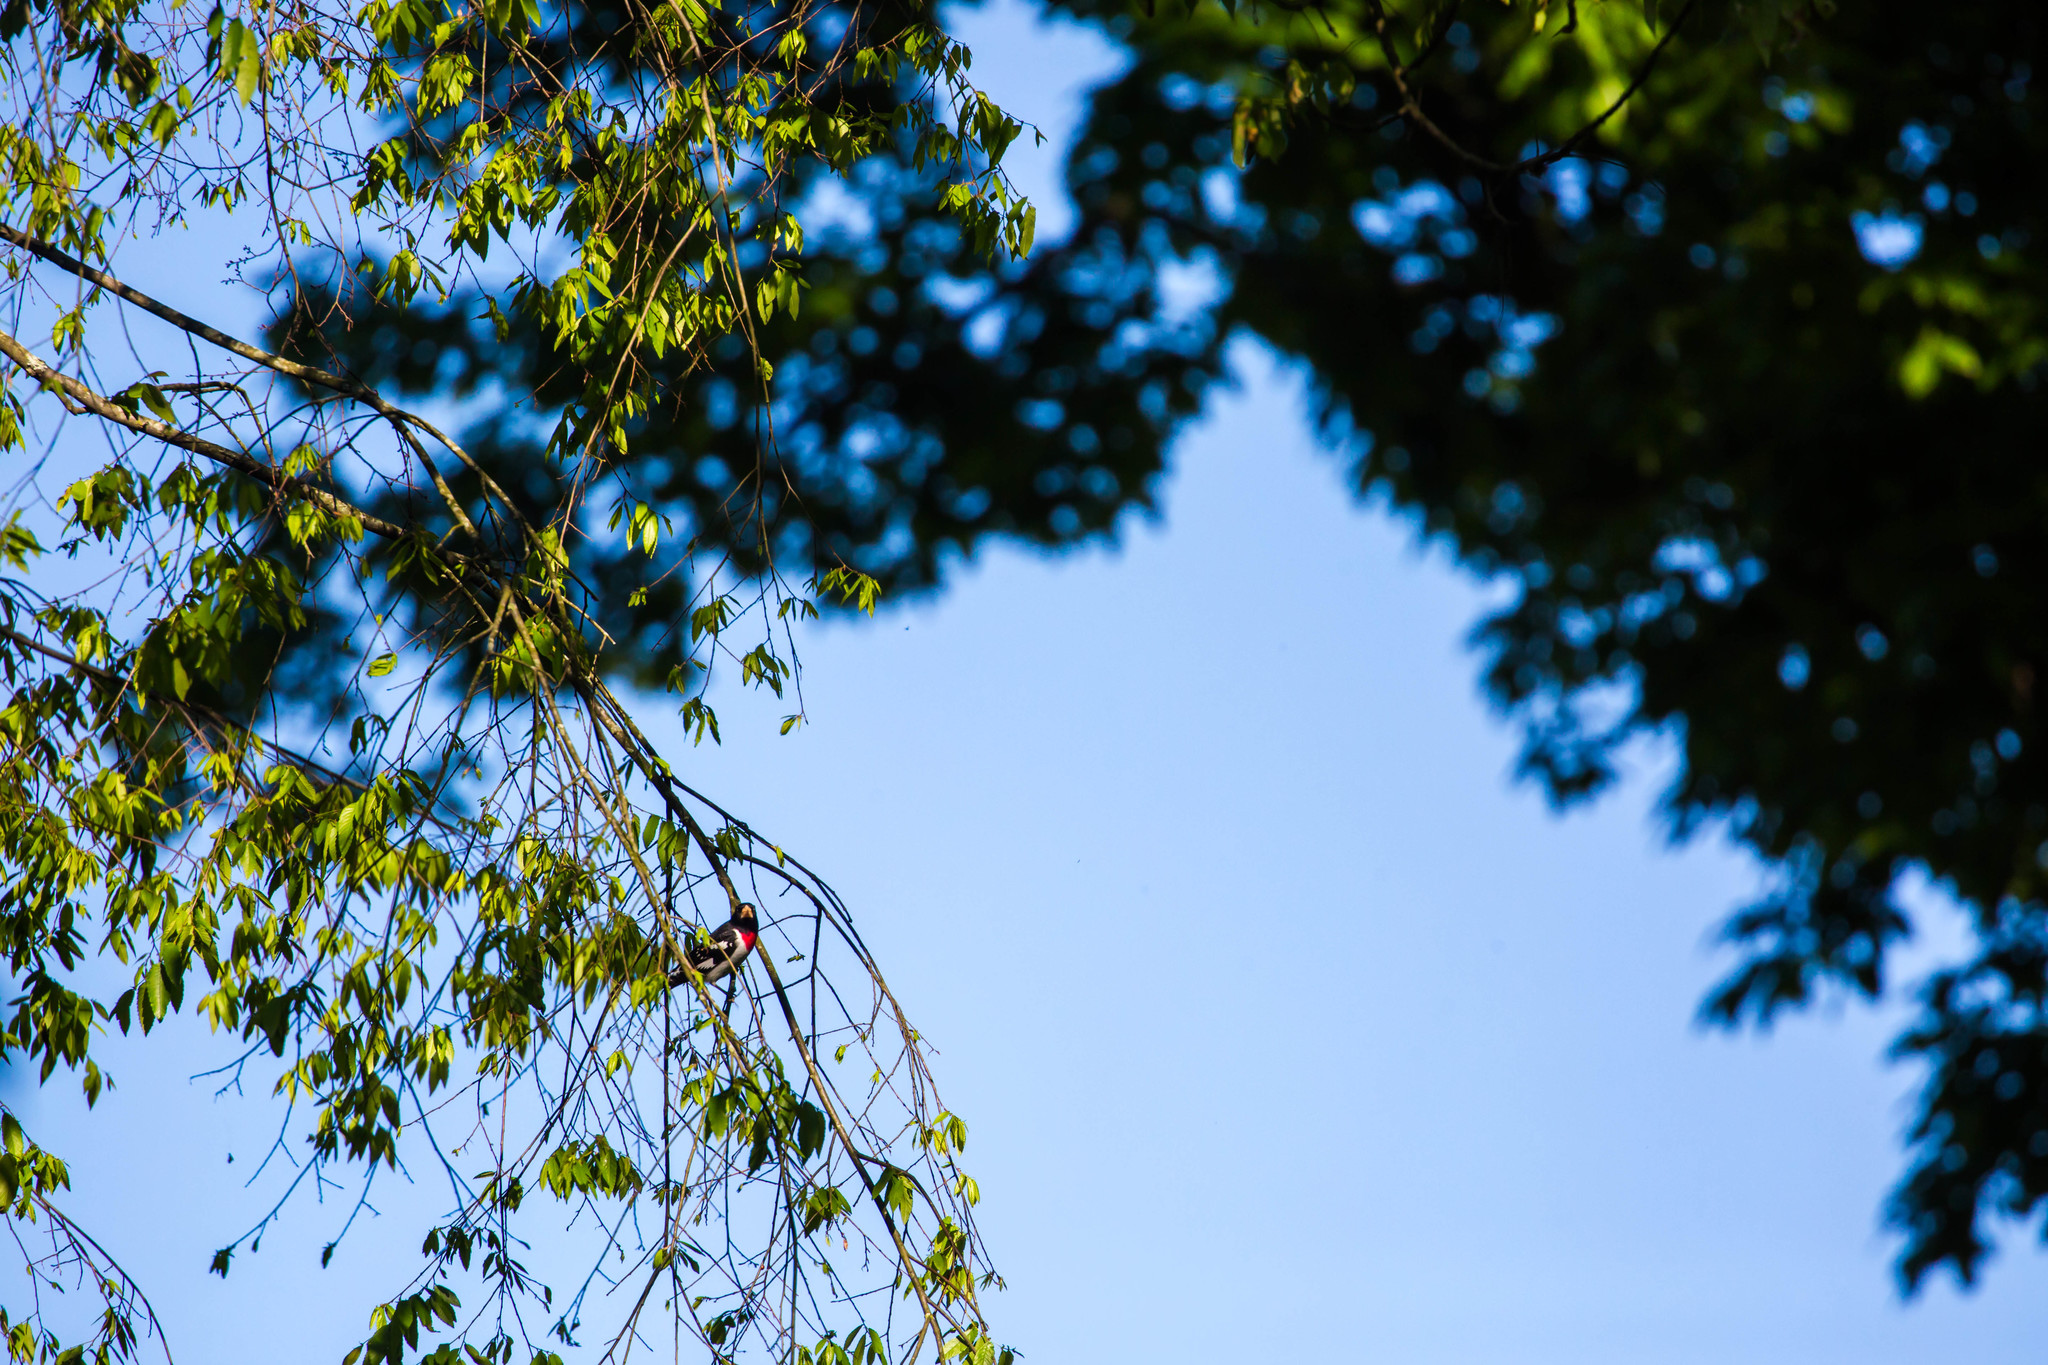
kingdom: Animalia
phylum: Chordata
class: Aves
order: Passeriformes
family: Cardinalidae
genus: Pheucticus
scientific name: Pheucticus ludovicianus
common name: Rose-breasted grosbeak
